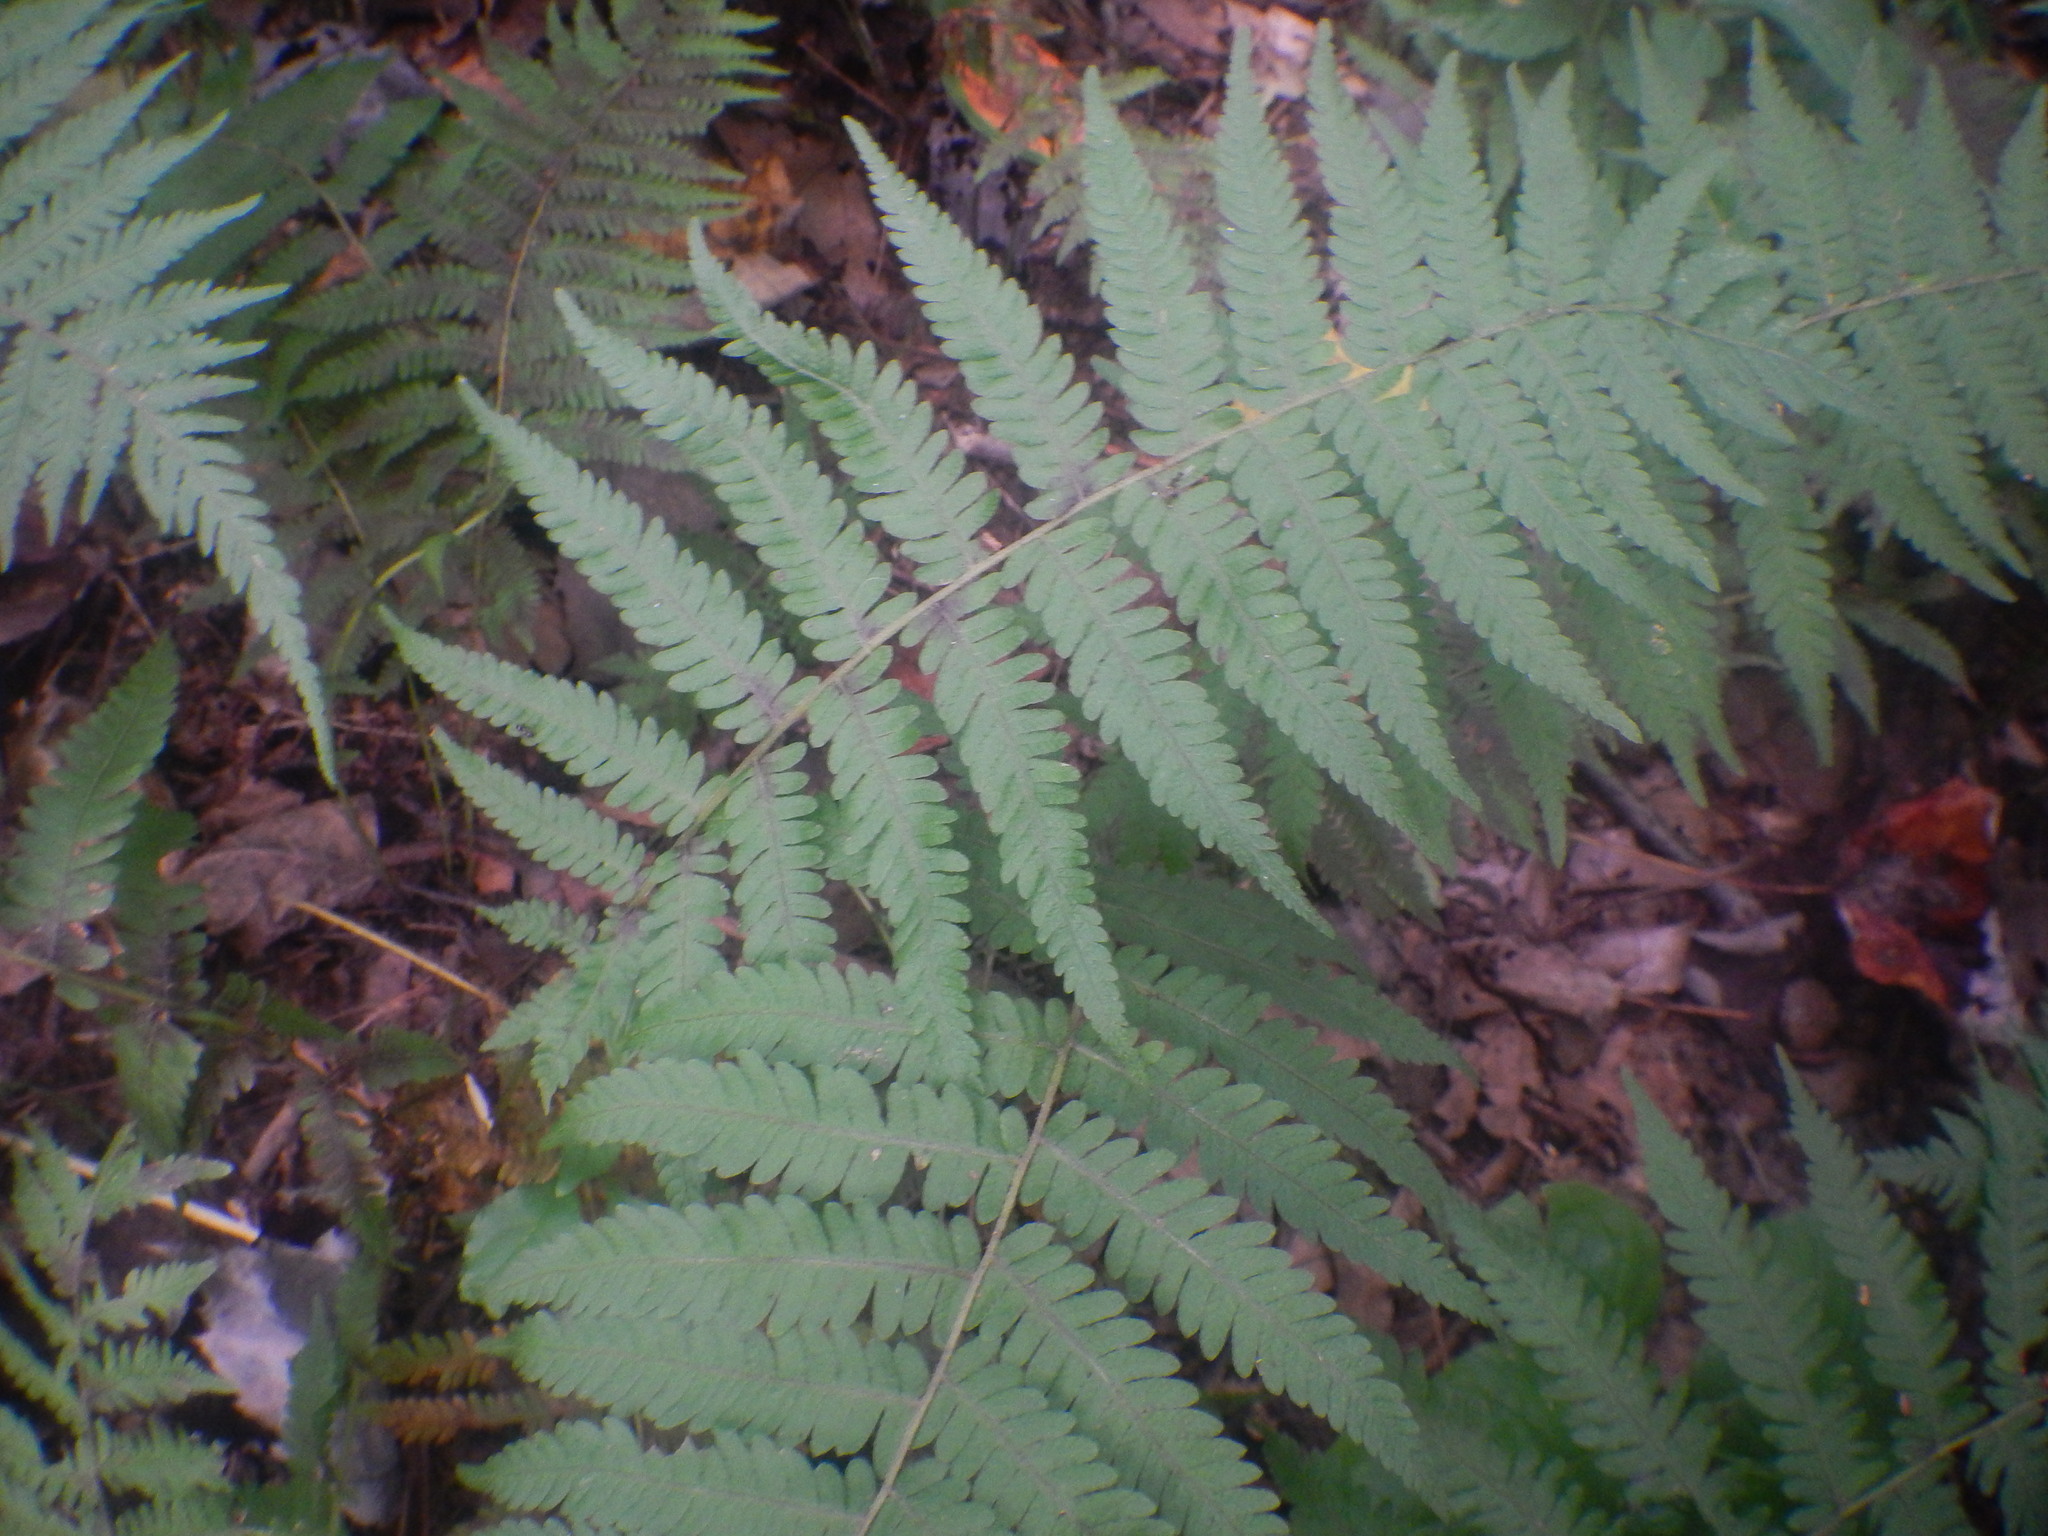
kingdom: Plantae
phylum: Tracheophyta
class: Polypodiopsida
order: Polypodiales
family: Dryopteridaceae
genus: Dryopteris
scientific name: Dryopteris marginalis
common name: Marginal wood fern
